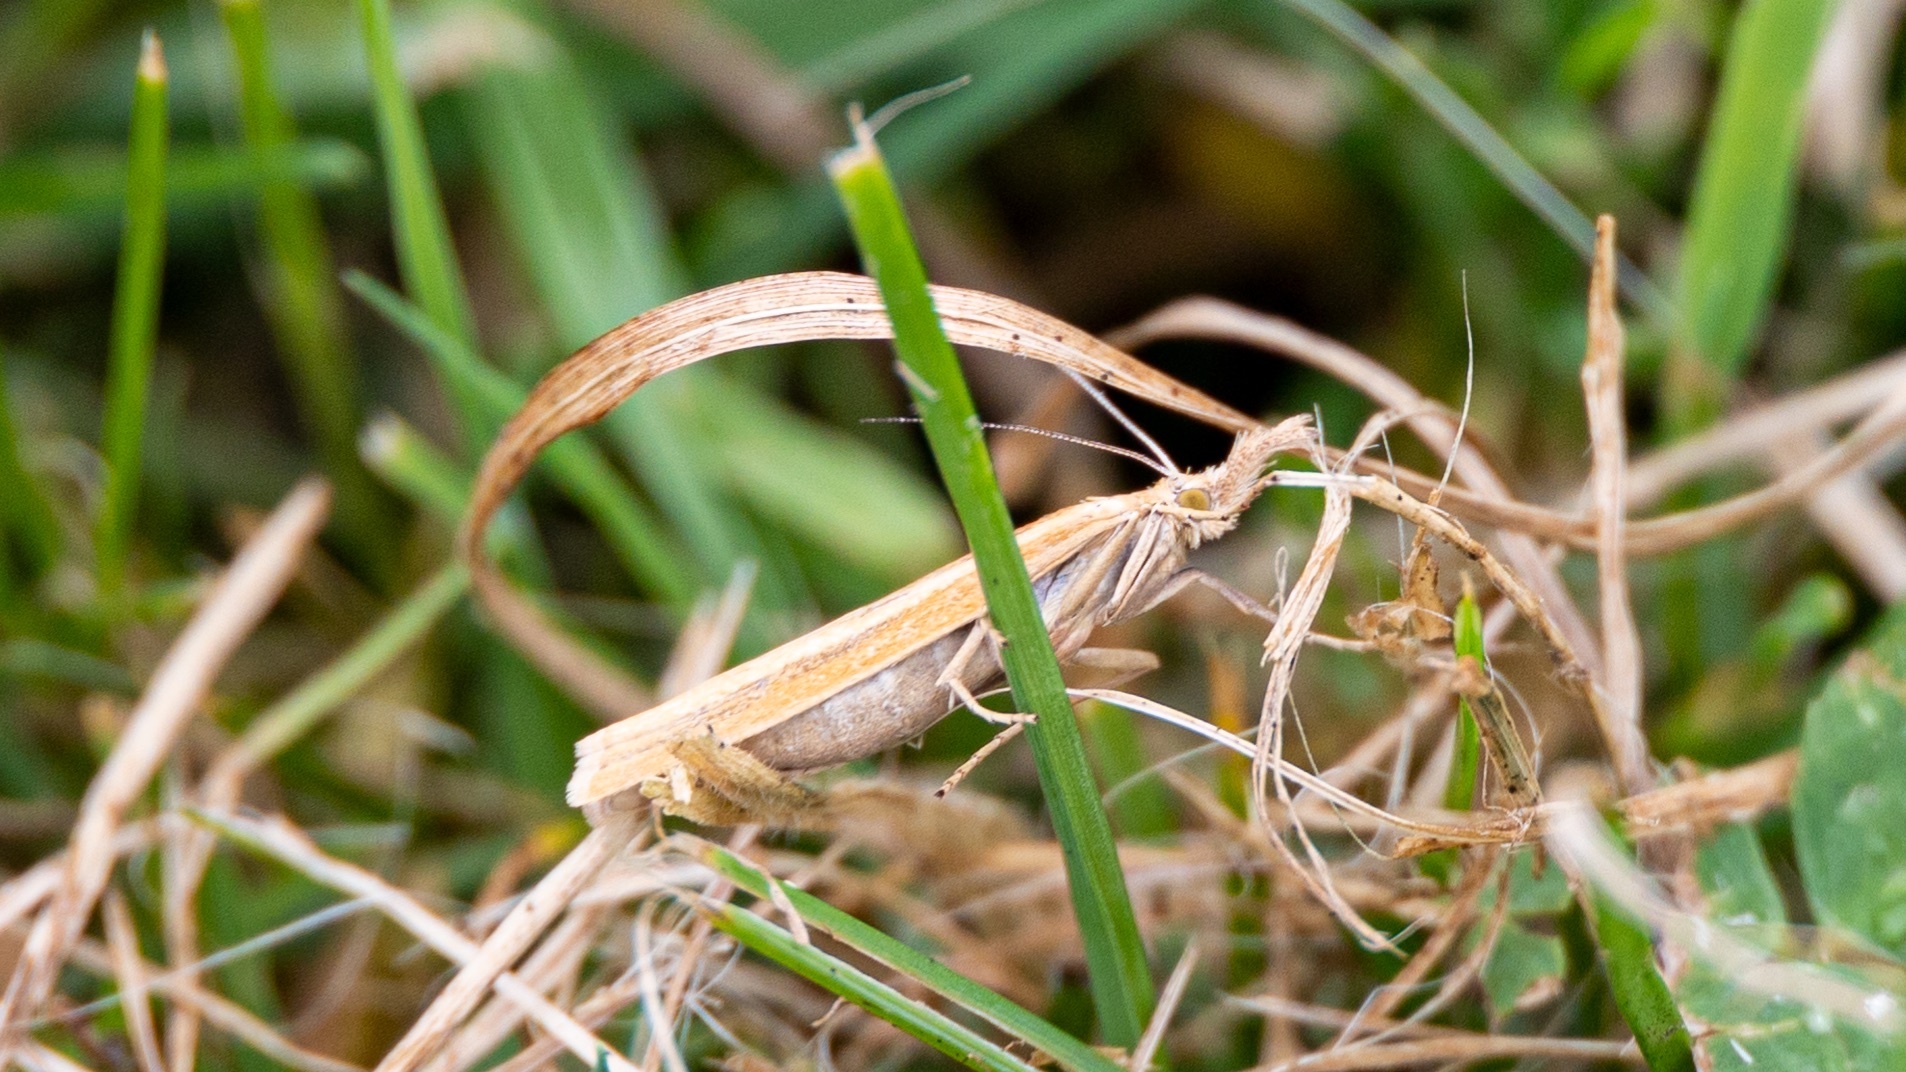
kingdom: Animalia
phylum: Arthropoda
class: Insecta
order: Lepidoptera
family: Crambidae
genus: Agriphila
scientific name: Agriphila tristellus
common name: Common grass-veneer
